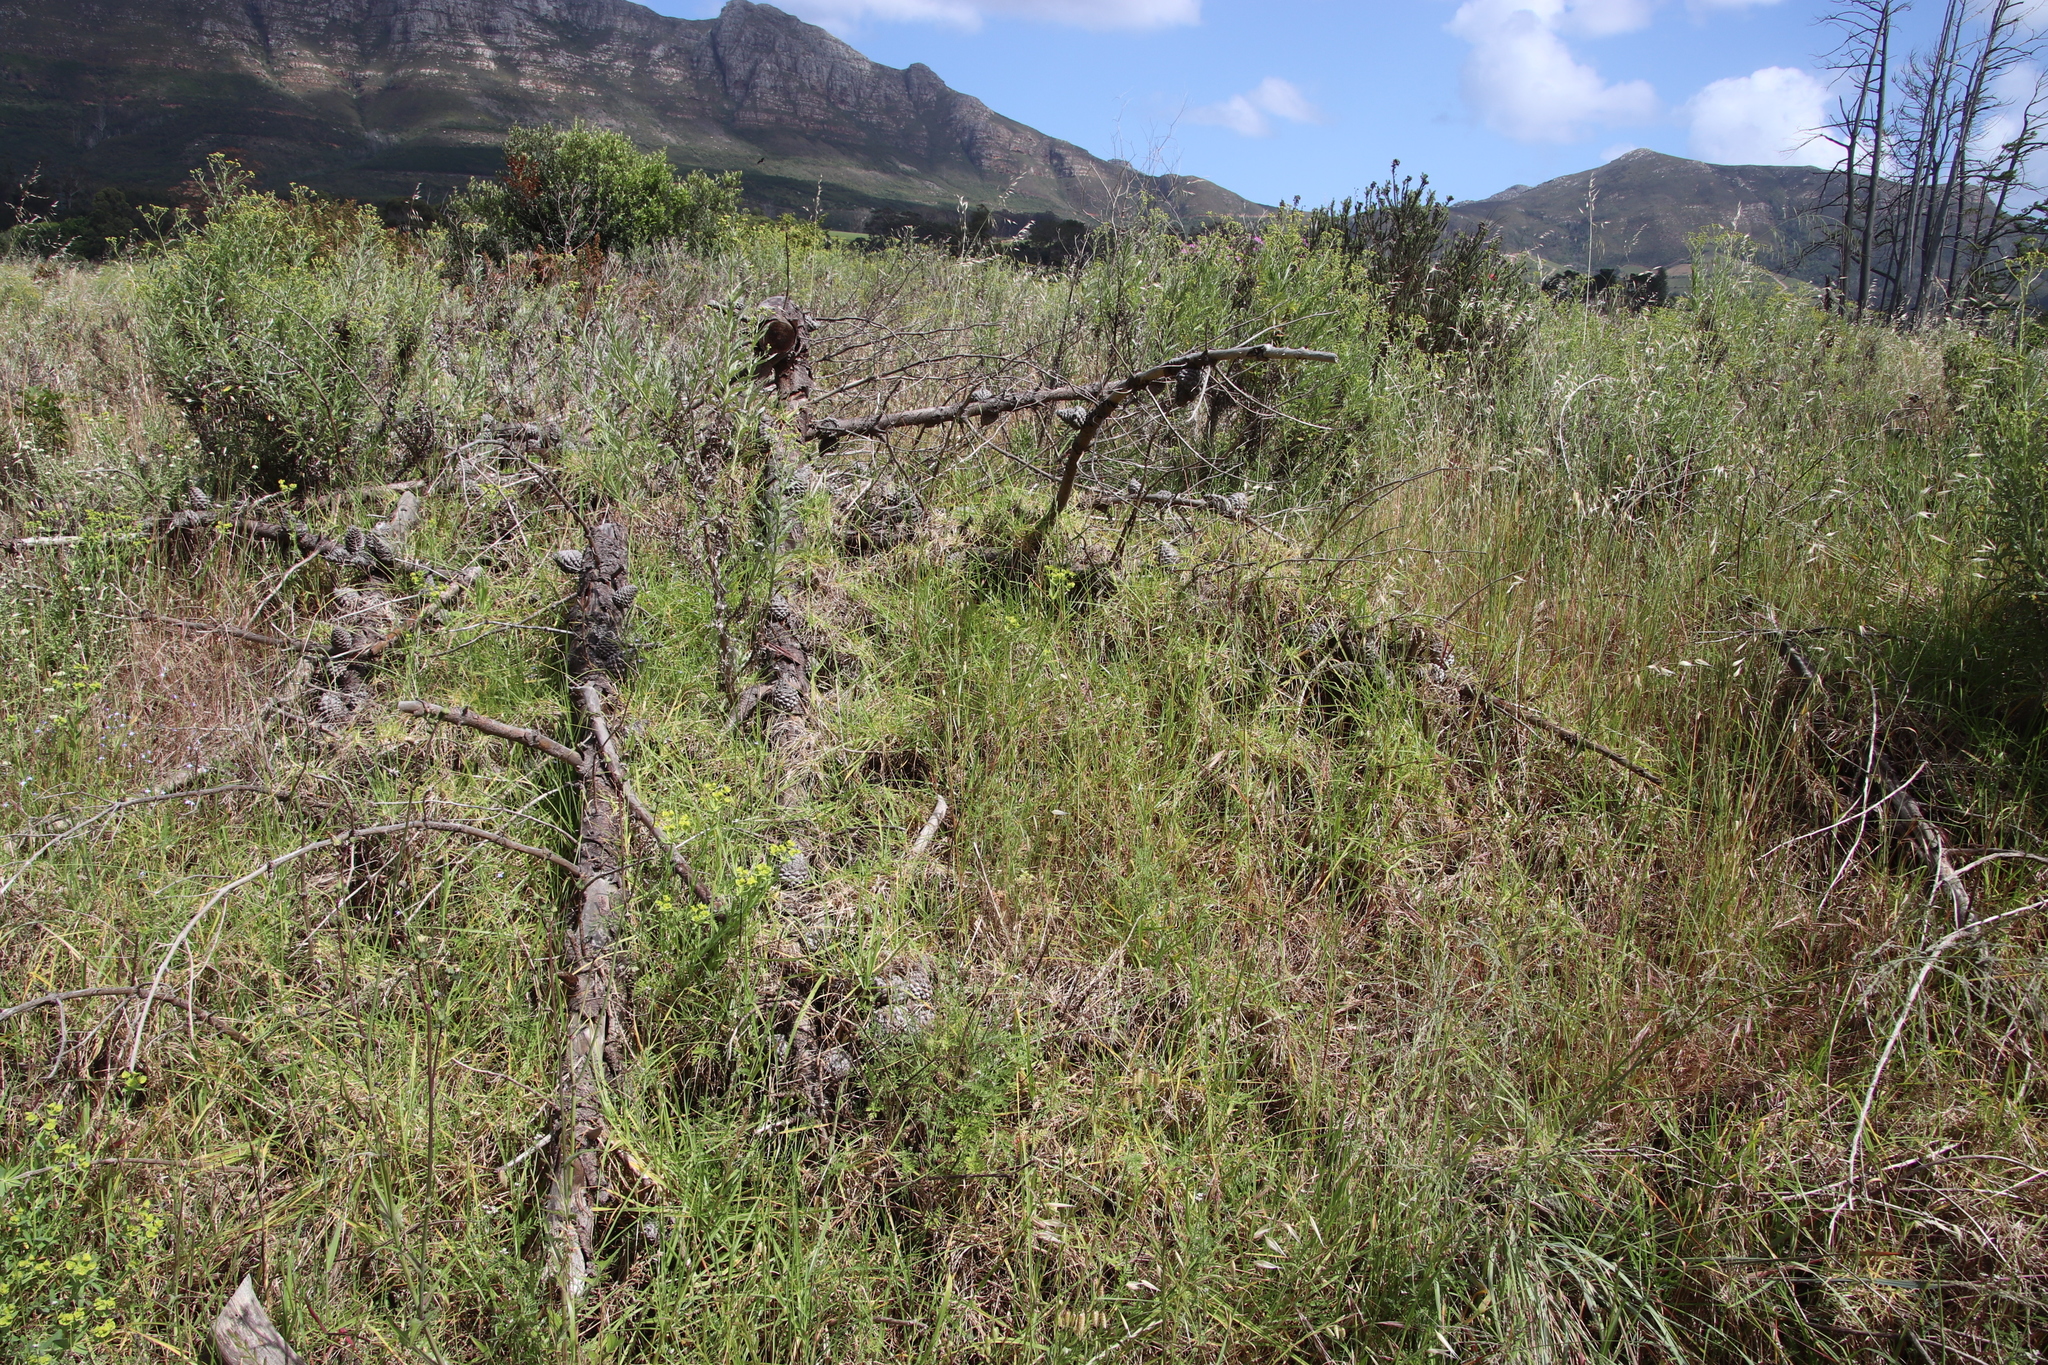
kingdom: Plantae
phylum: Tracheophyta
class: Liliopsida
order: Poales
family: Poaceae
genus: Cenchrus
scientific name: Cenchrus clandestinus
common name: Kikuyugrass
